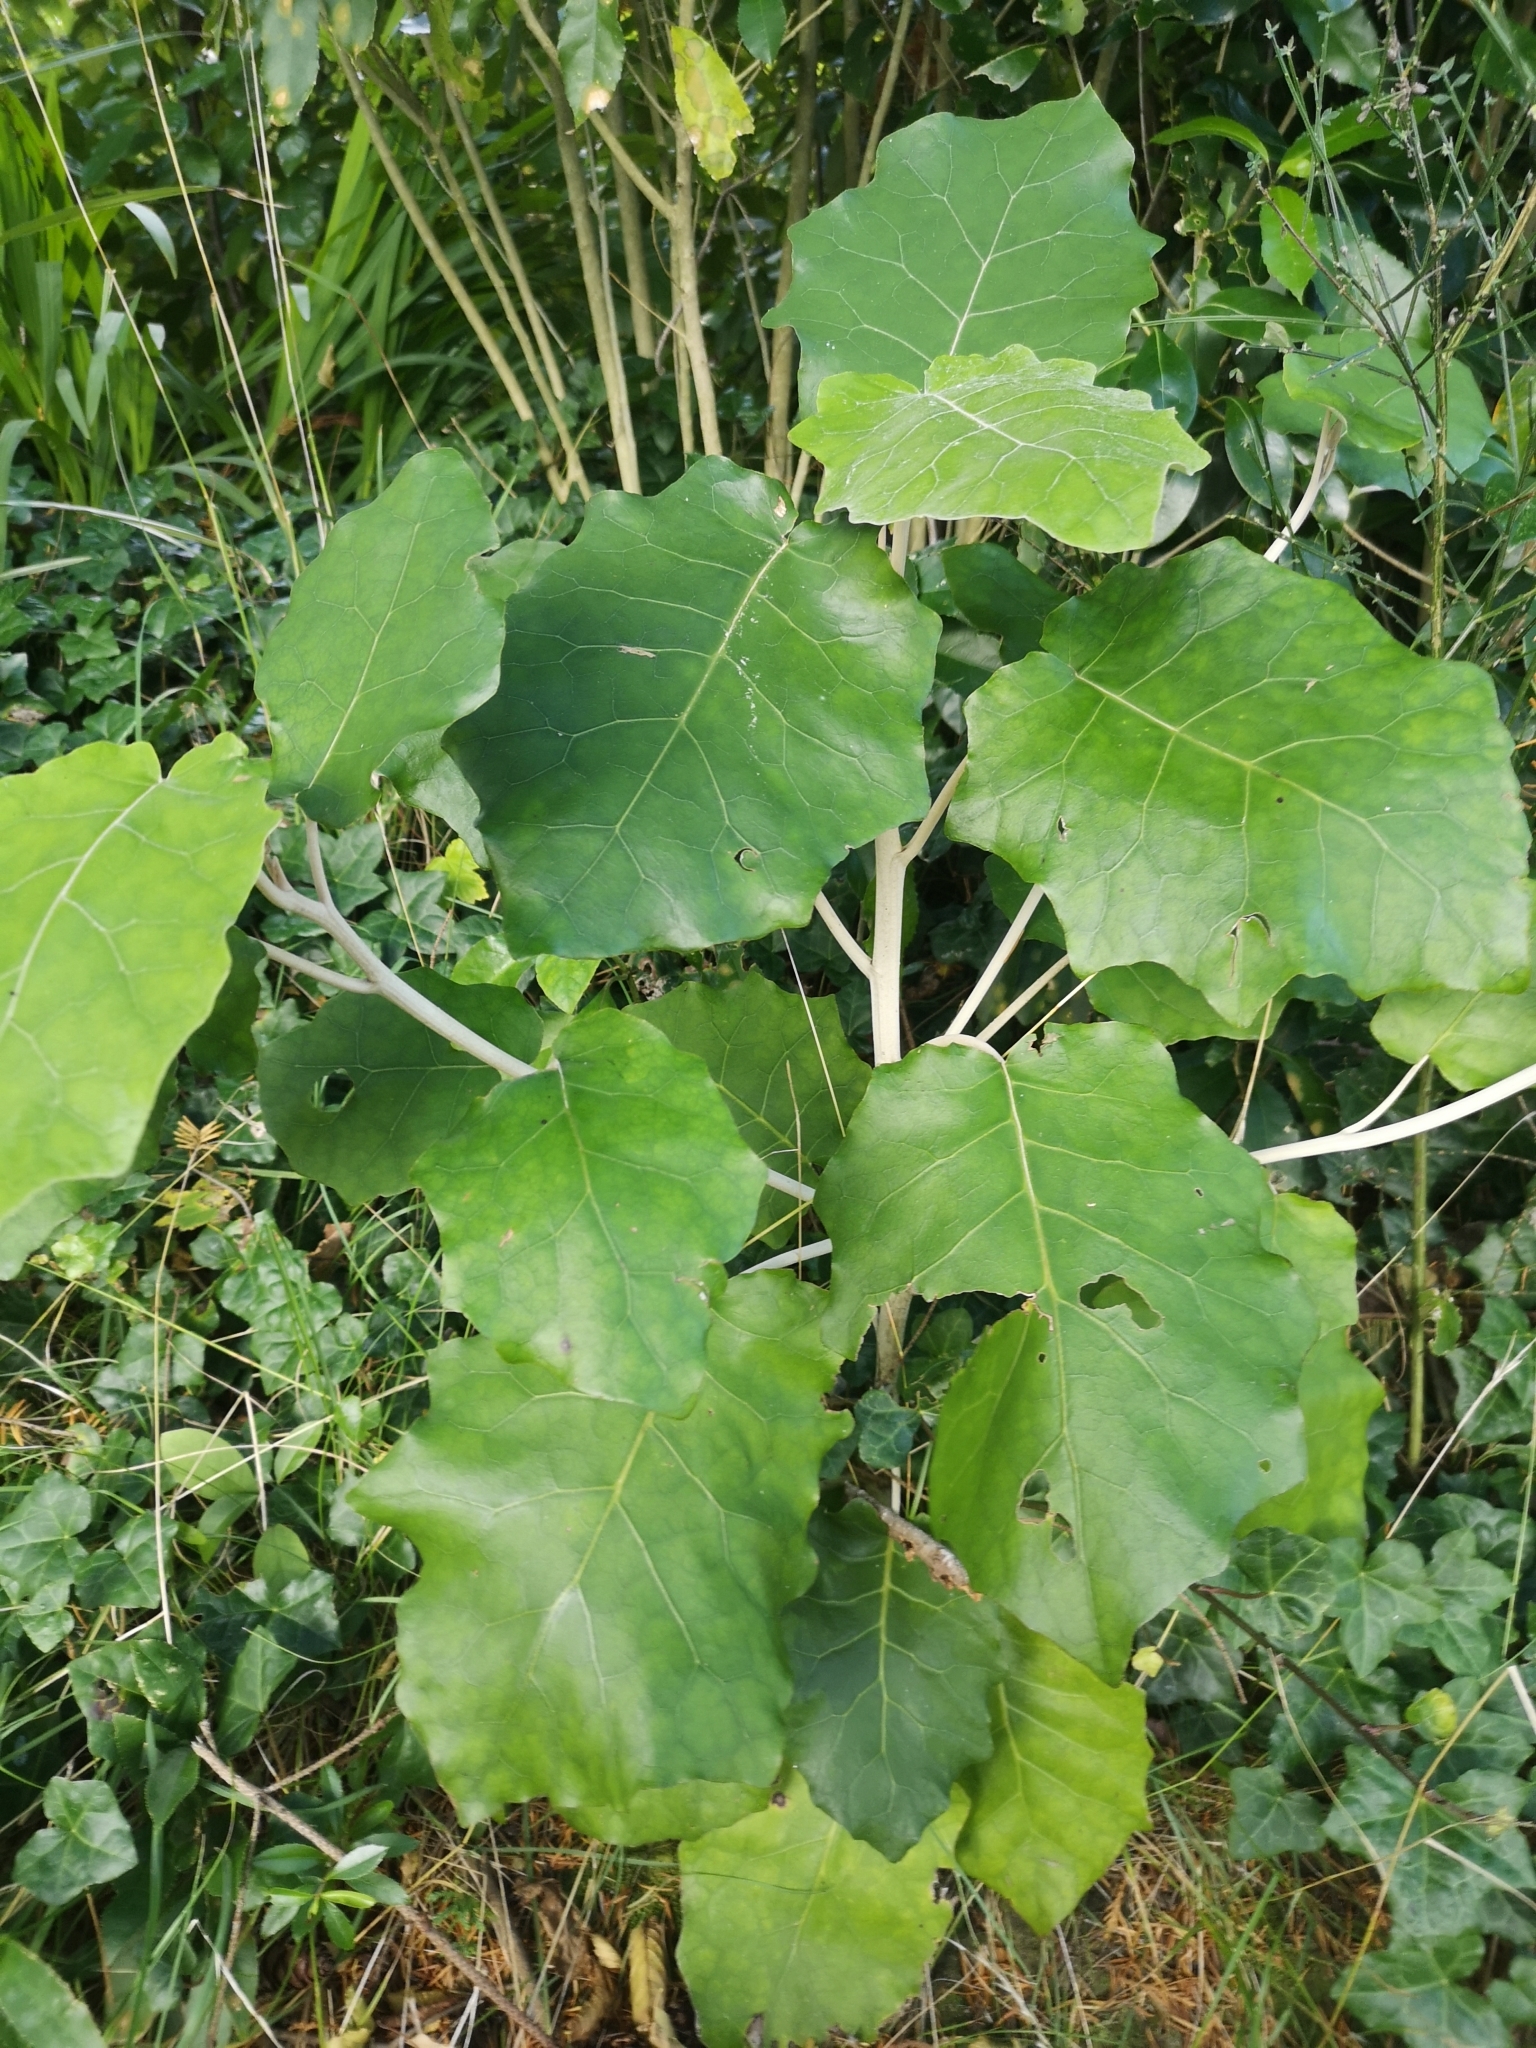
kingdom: Plantae
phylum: Tracheophyta
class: Magnoliopsida
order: Asterales
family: Asteraceae
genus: Brachyglottis
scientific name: Brachyglottis repanda
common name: Hedge ragwort
